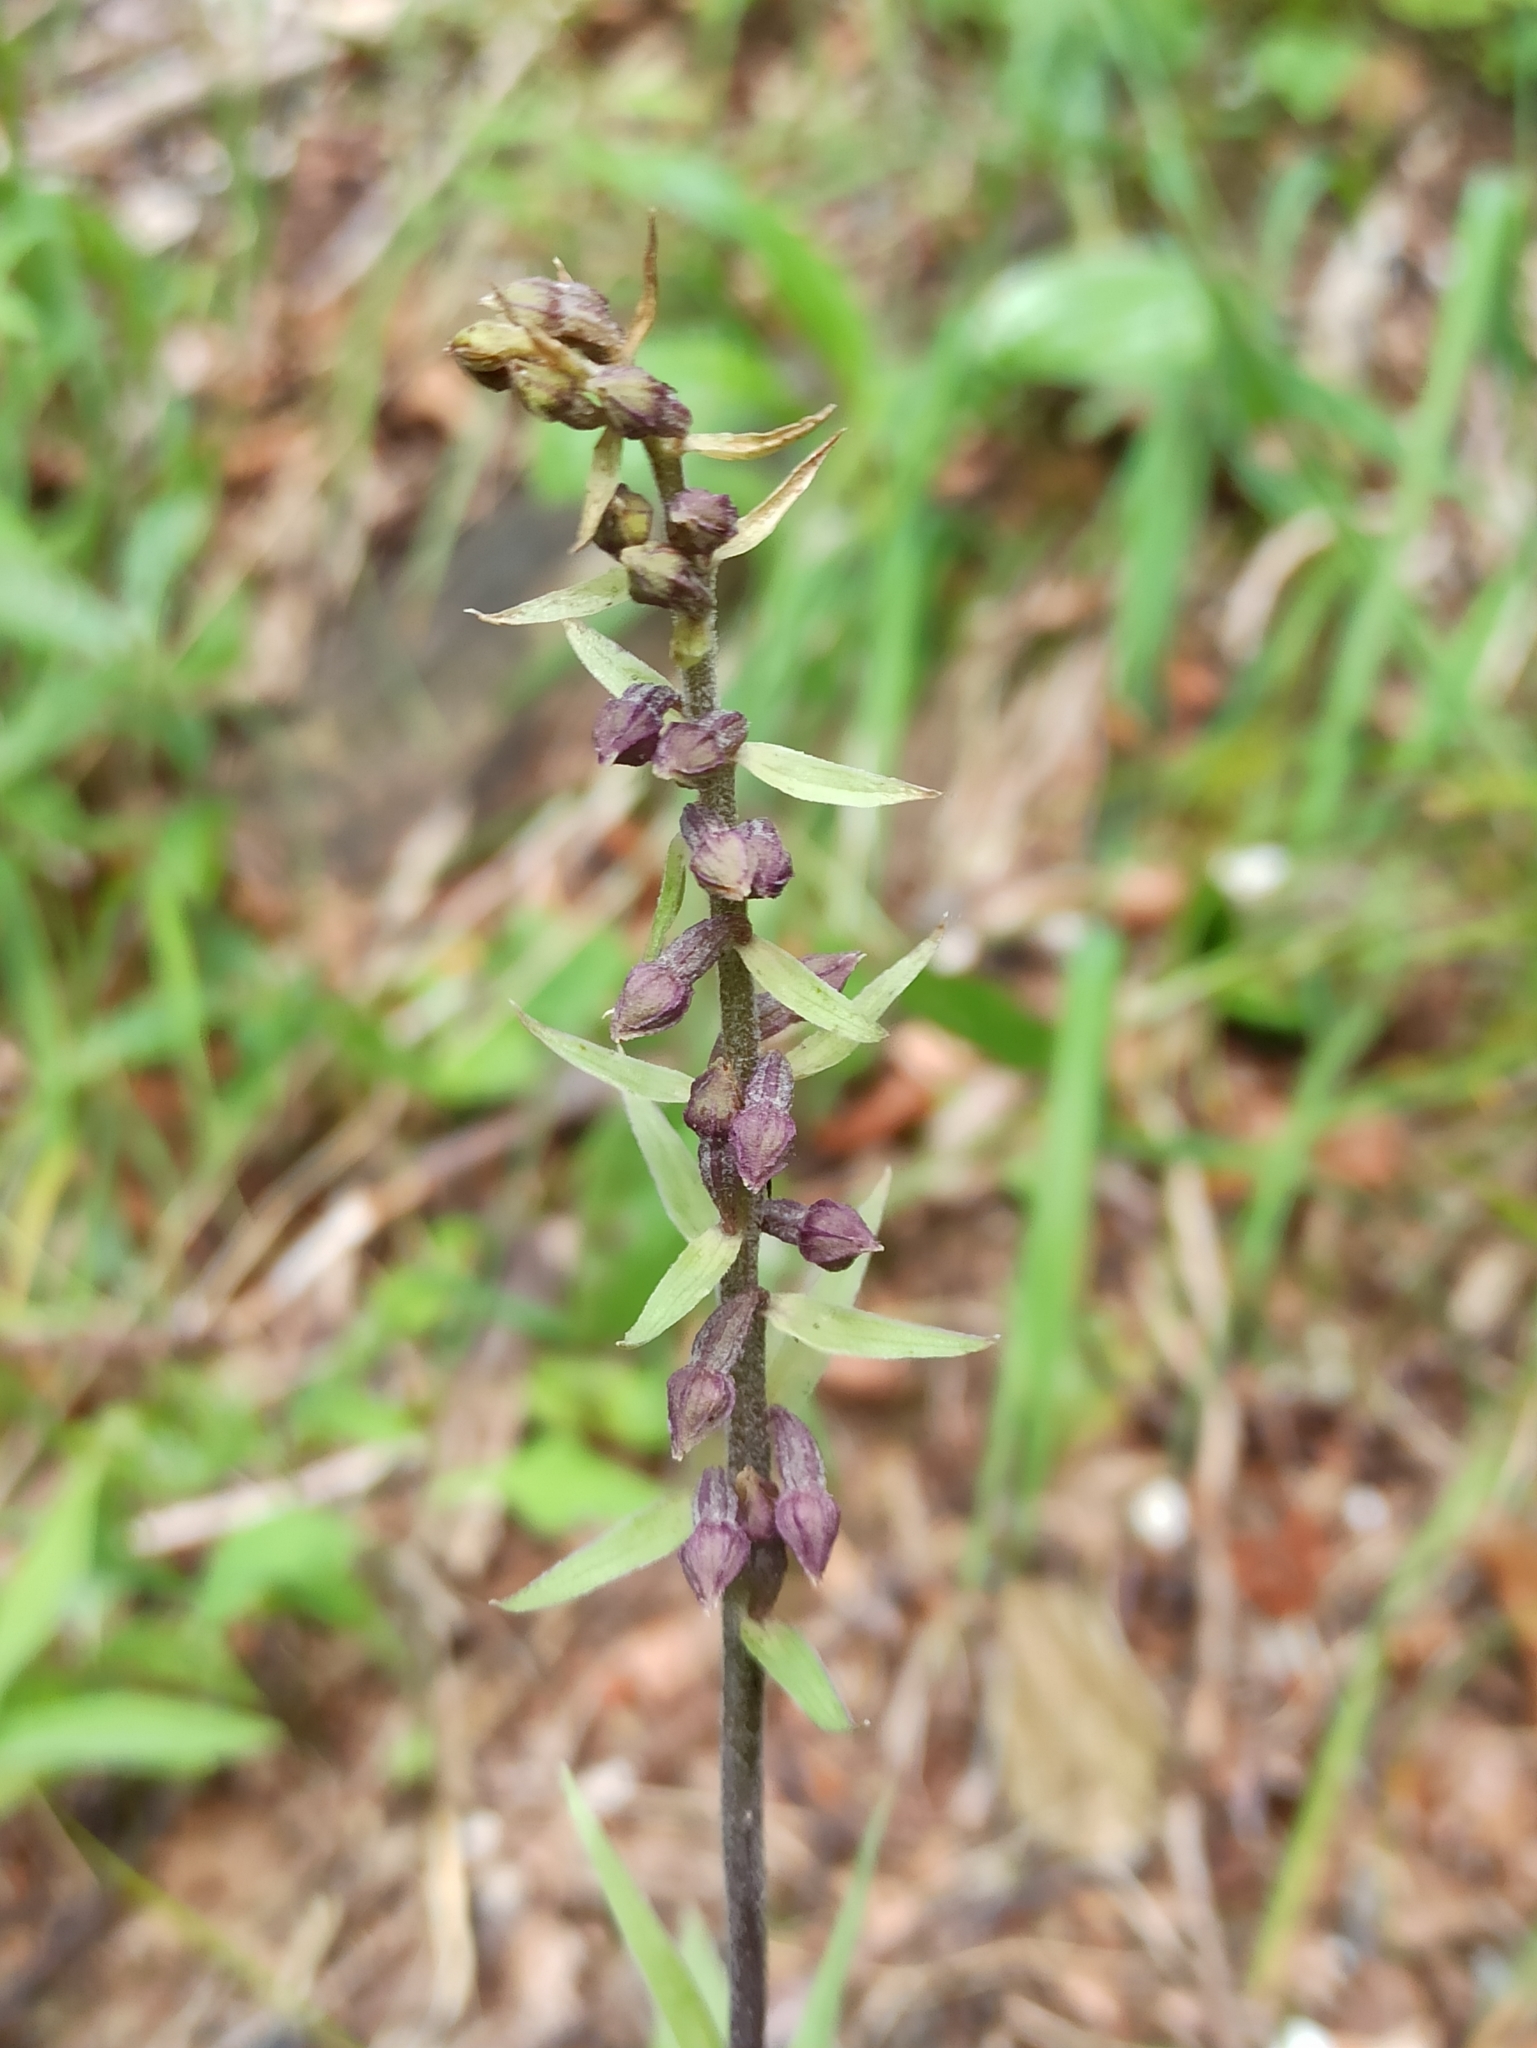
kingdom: Plantae
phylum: Tracheophyta
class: Liliopsida
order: Asparagales
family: Orchidaceae
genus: Epipactis
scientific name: Epipactis atrorubens
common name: Dark-red helleborine
